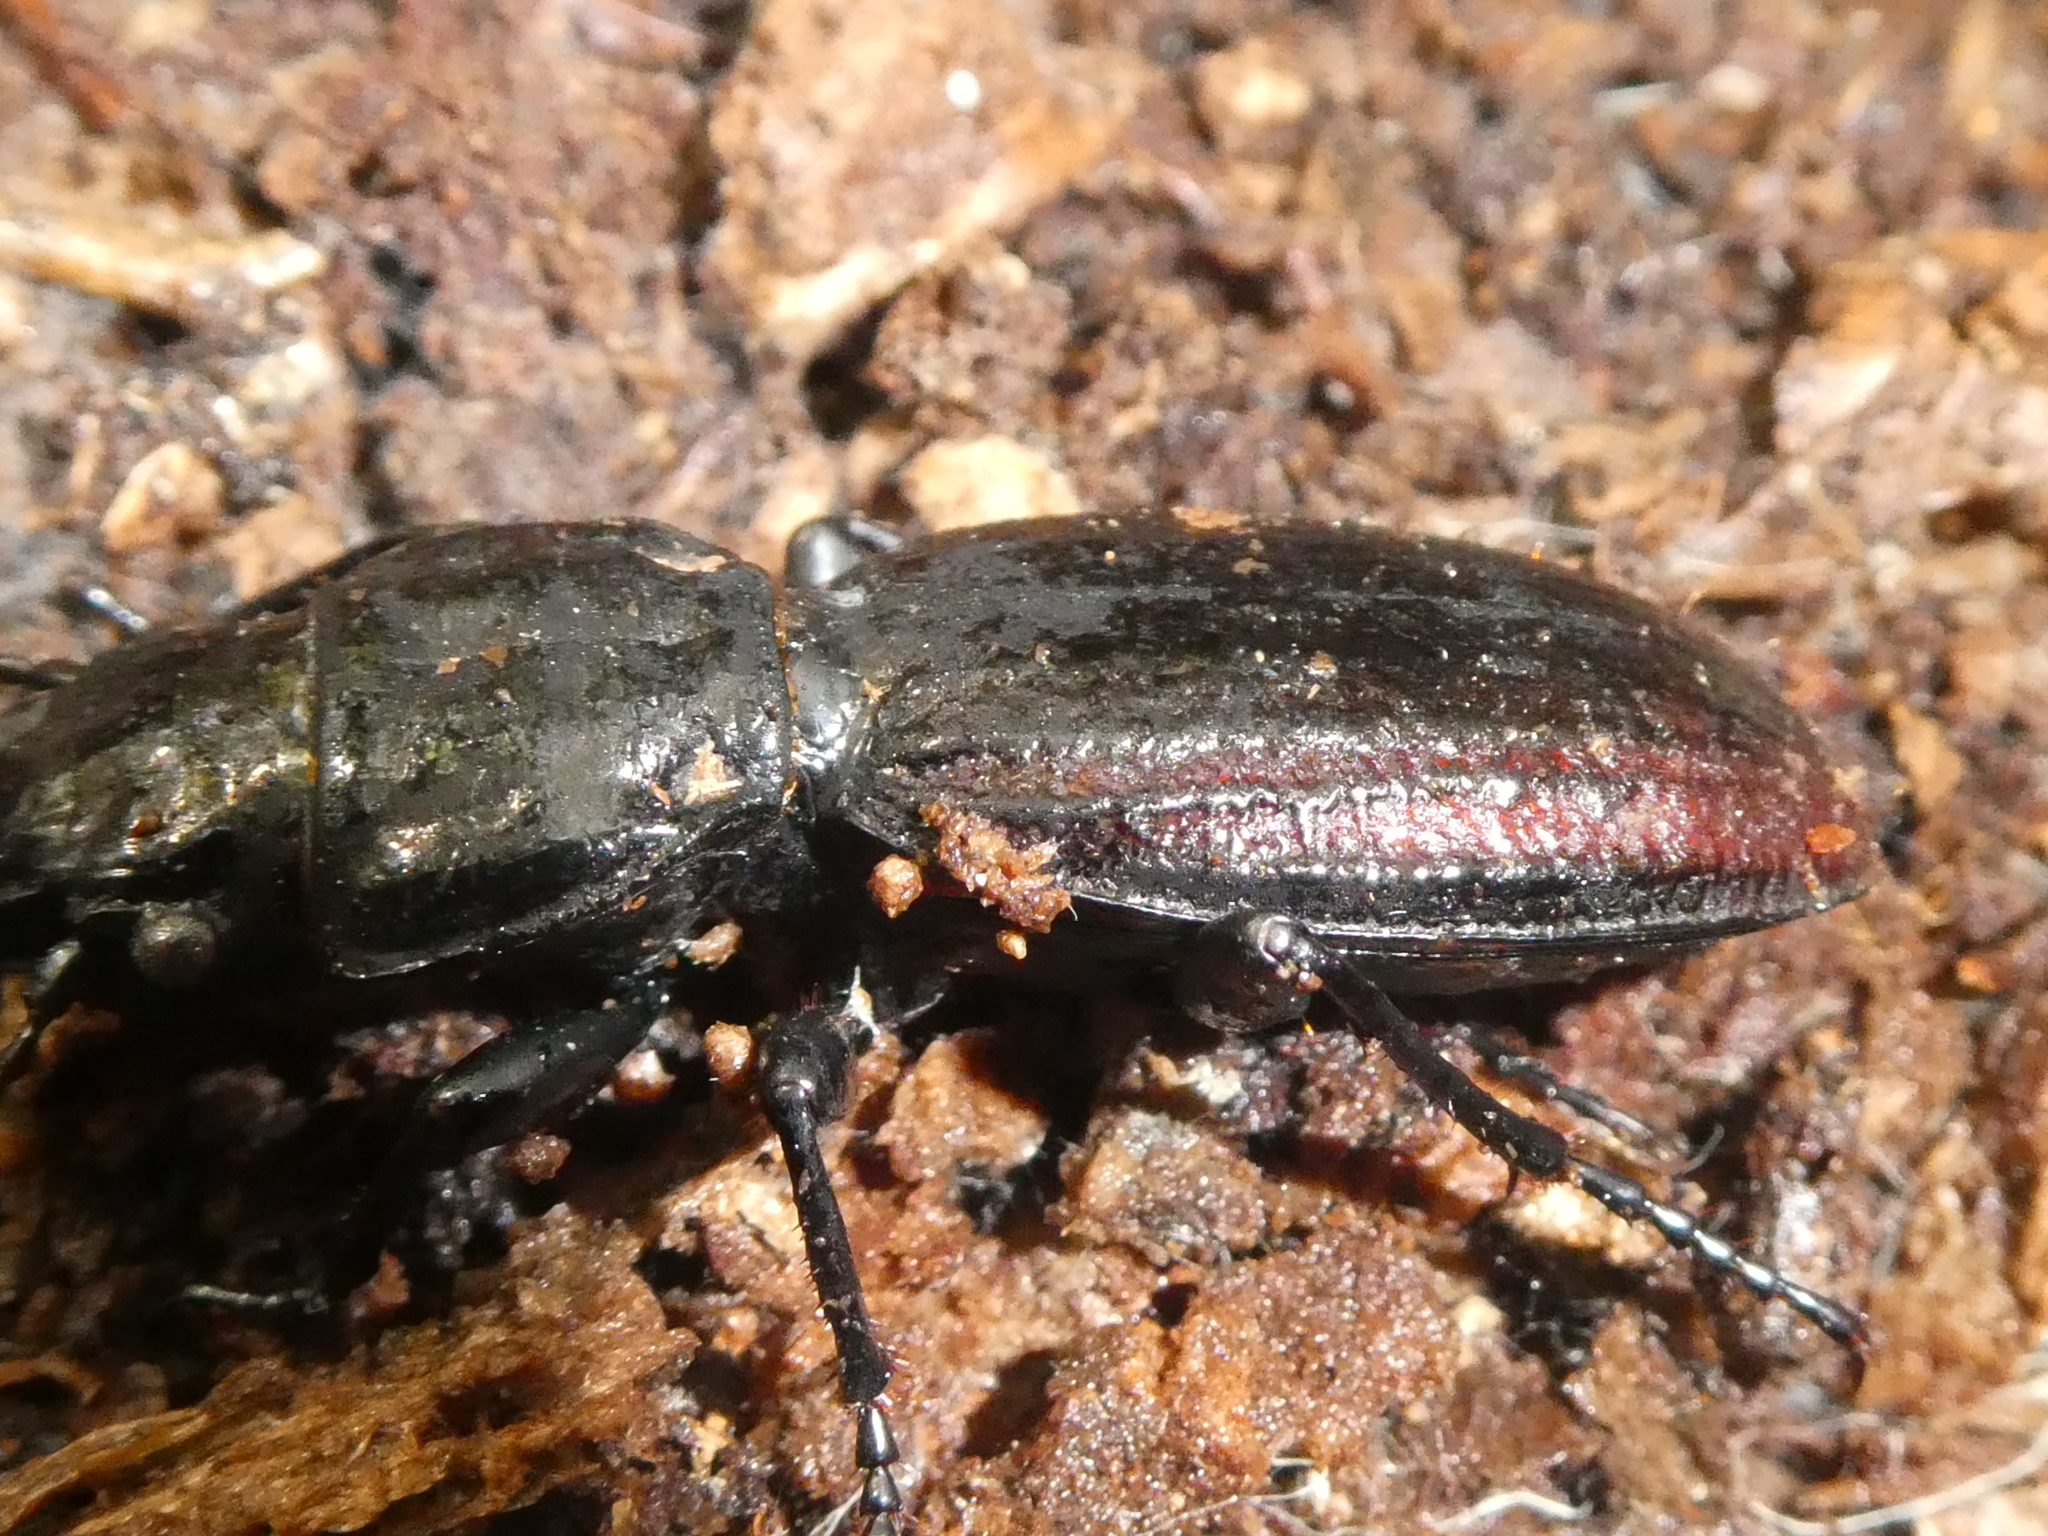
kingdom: Animalia
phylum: Arthropoda
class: Insecta
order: Coleoptera
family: Carabidae
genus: Mecodema
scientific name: Mecodema costellum
